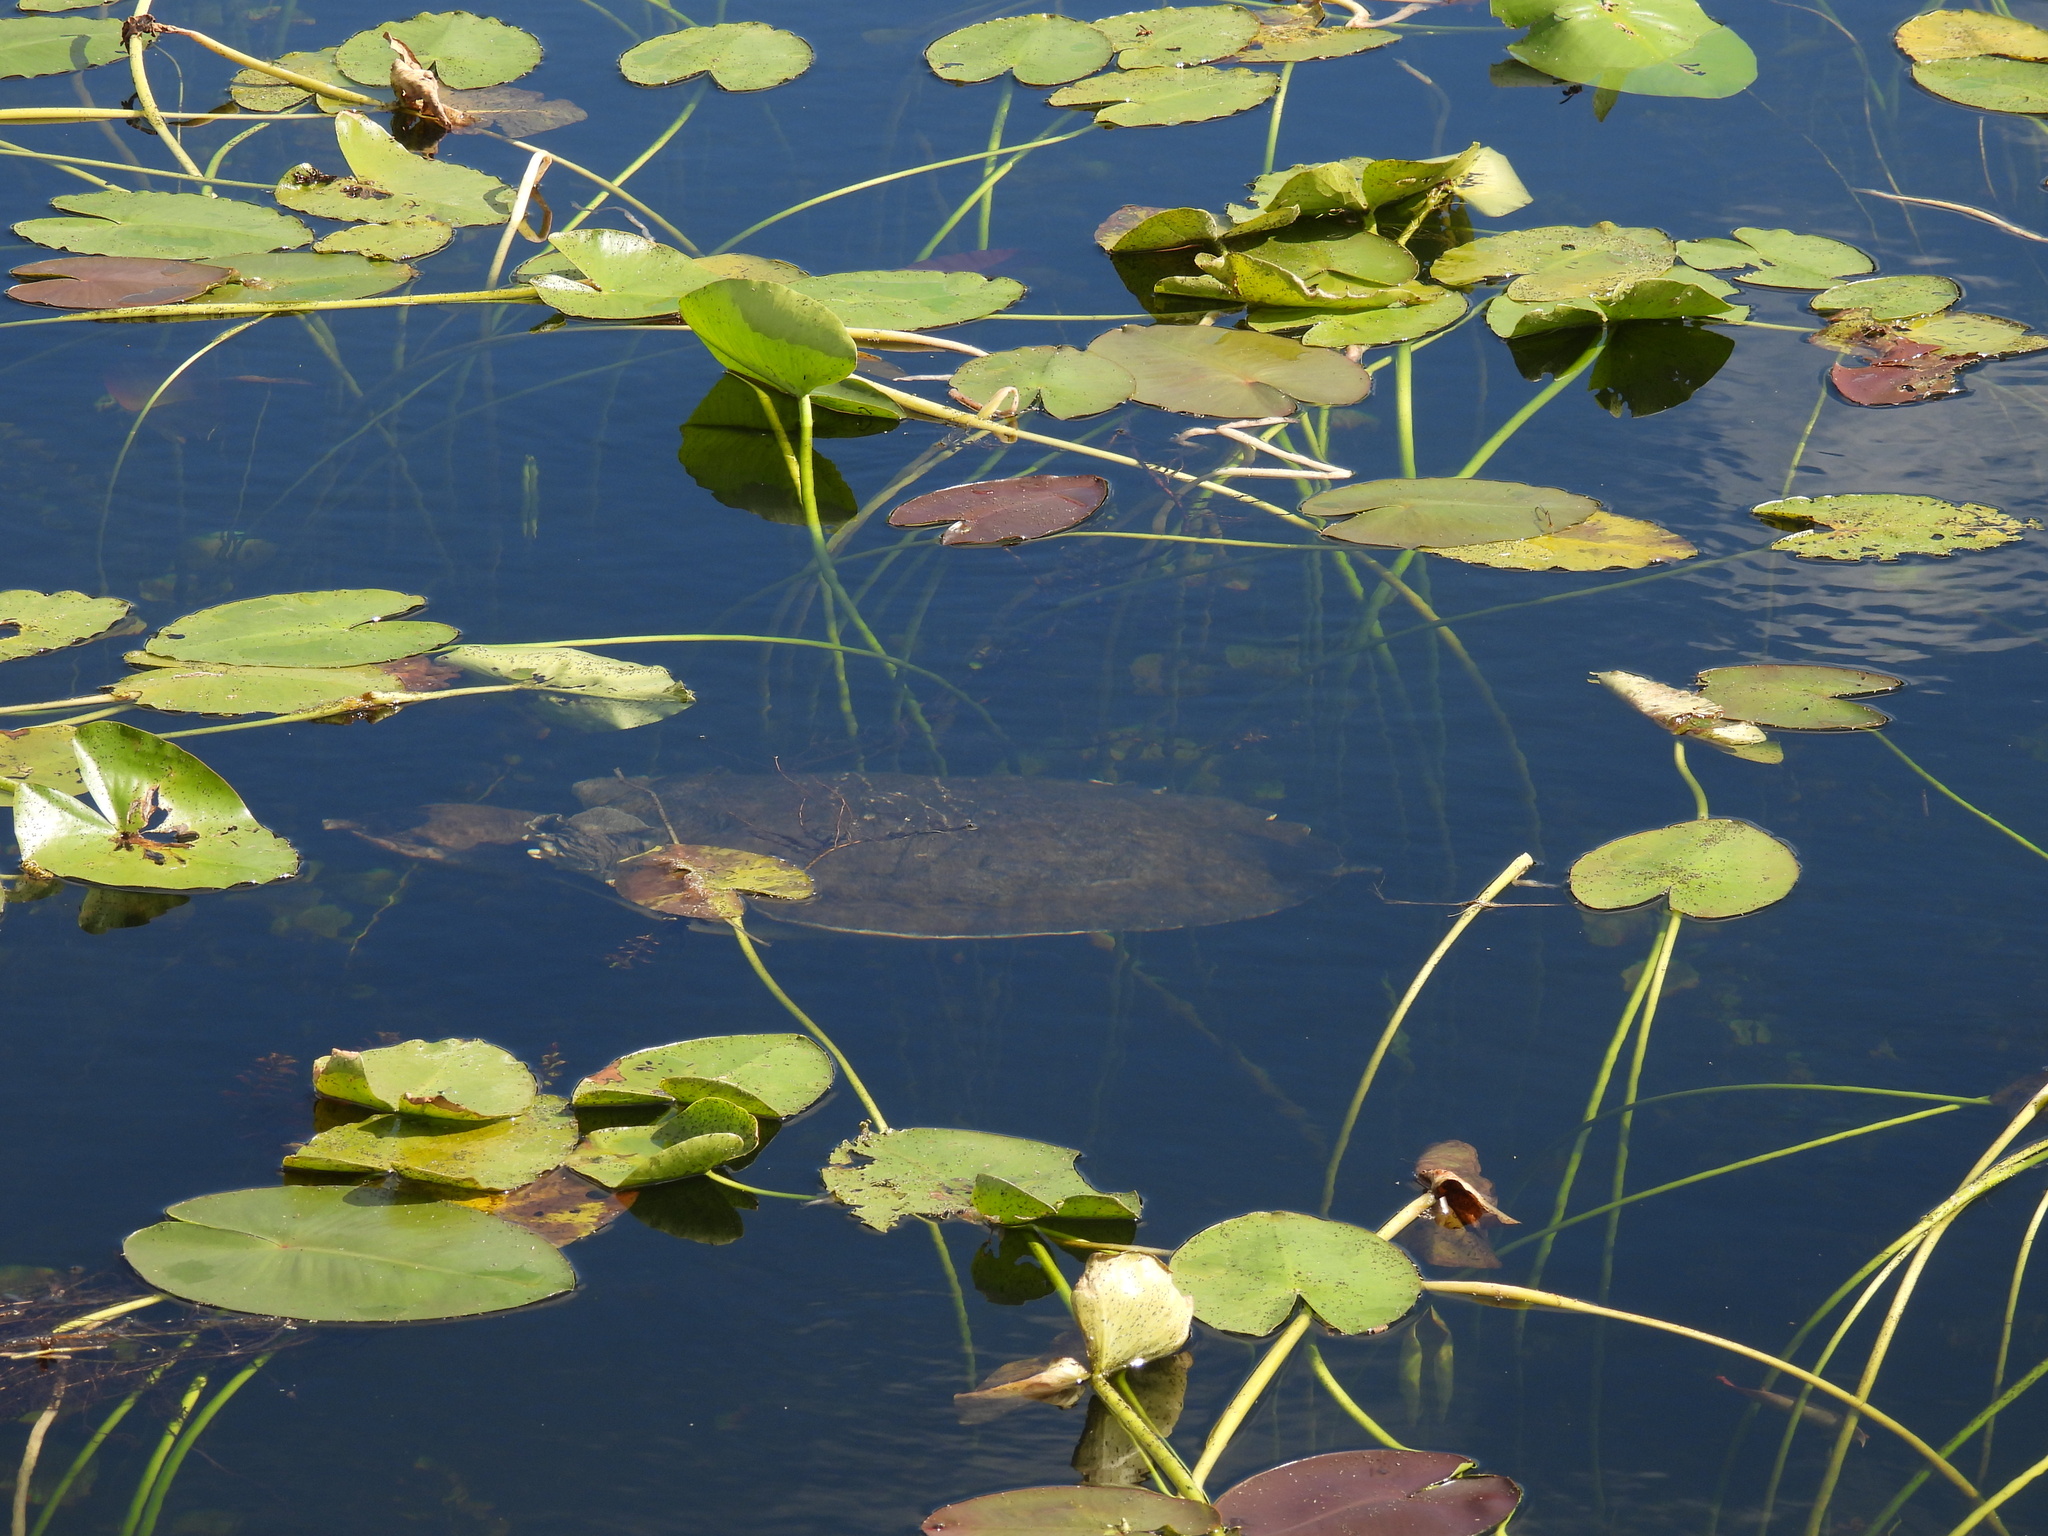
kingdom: Animalia
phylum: Chordata
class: Testudines
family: Trionychidae
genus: Apalone
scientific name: Apalone ferox
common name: Florida softshell turtle
